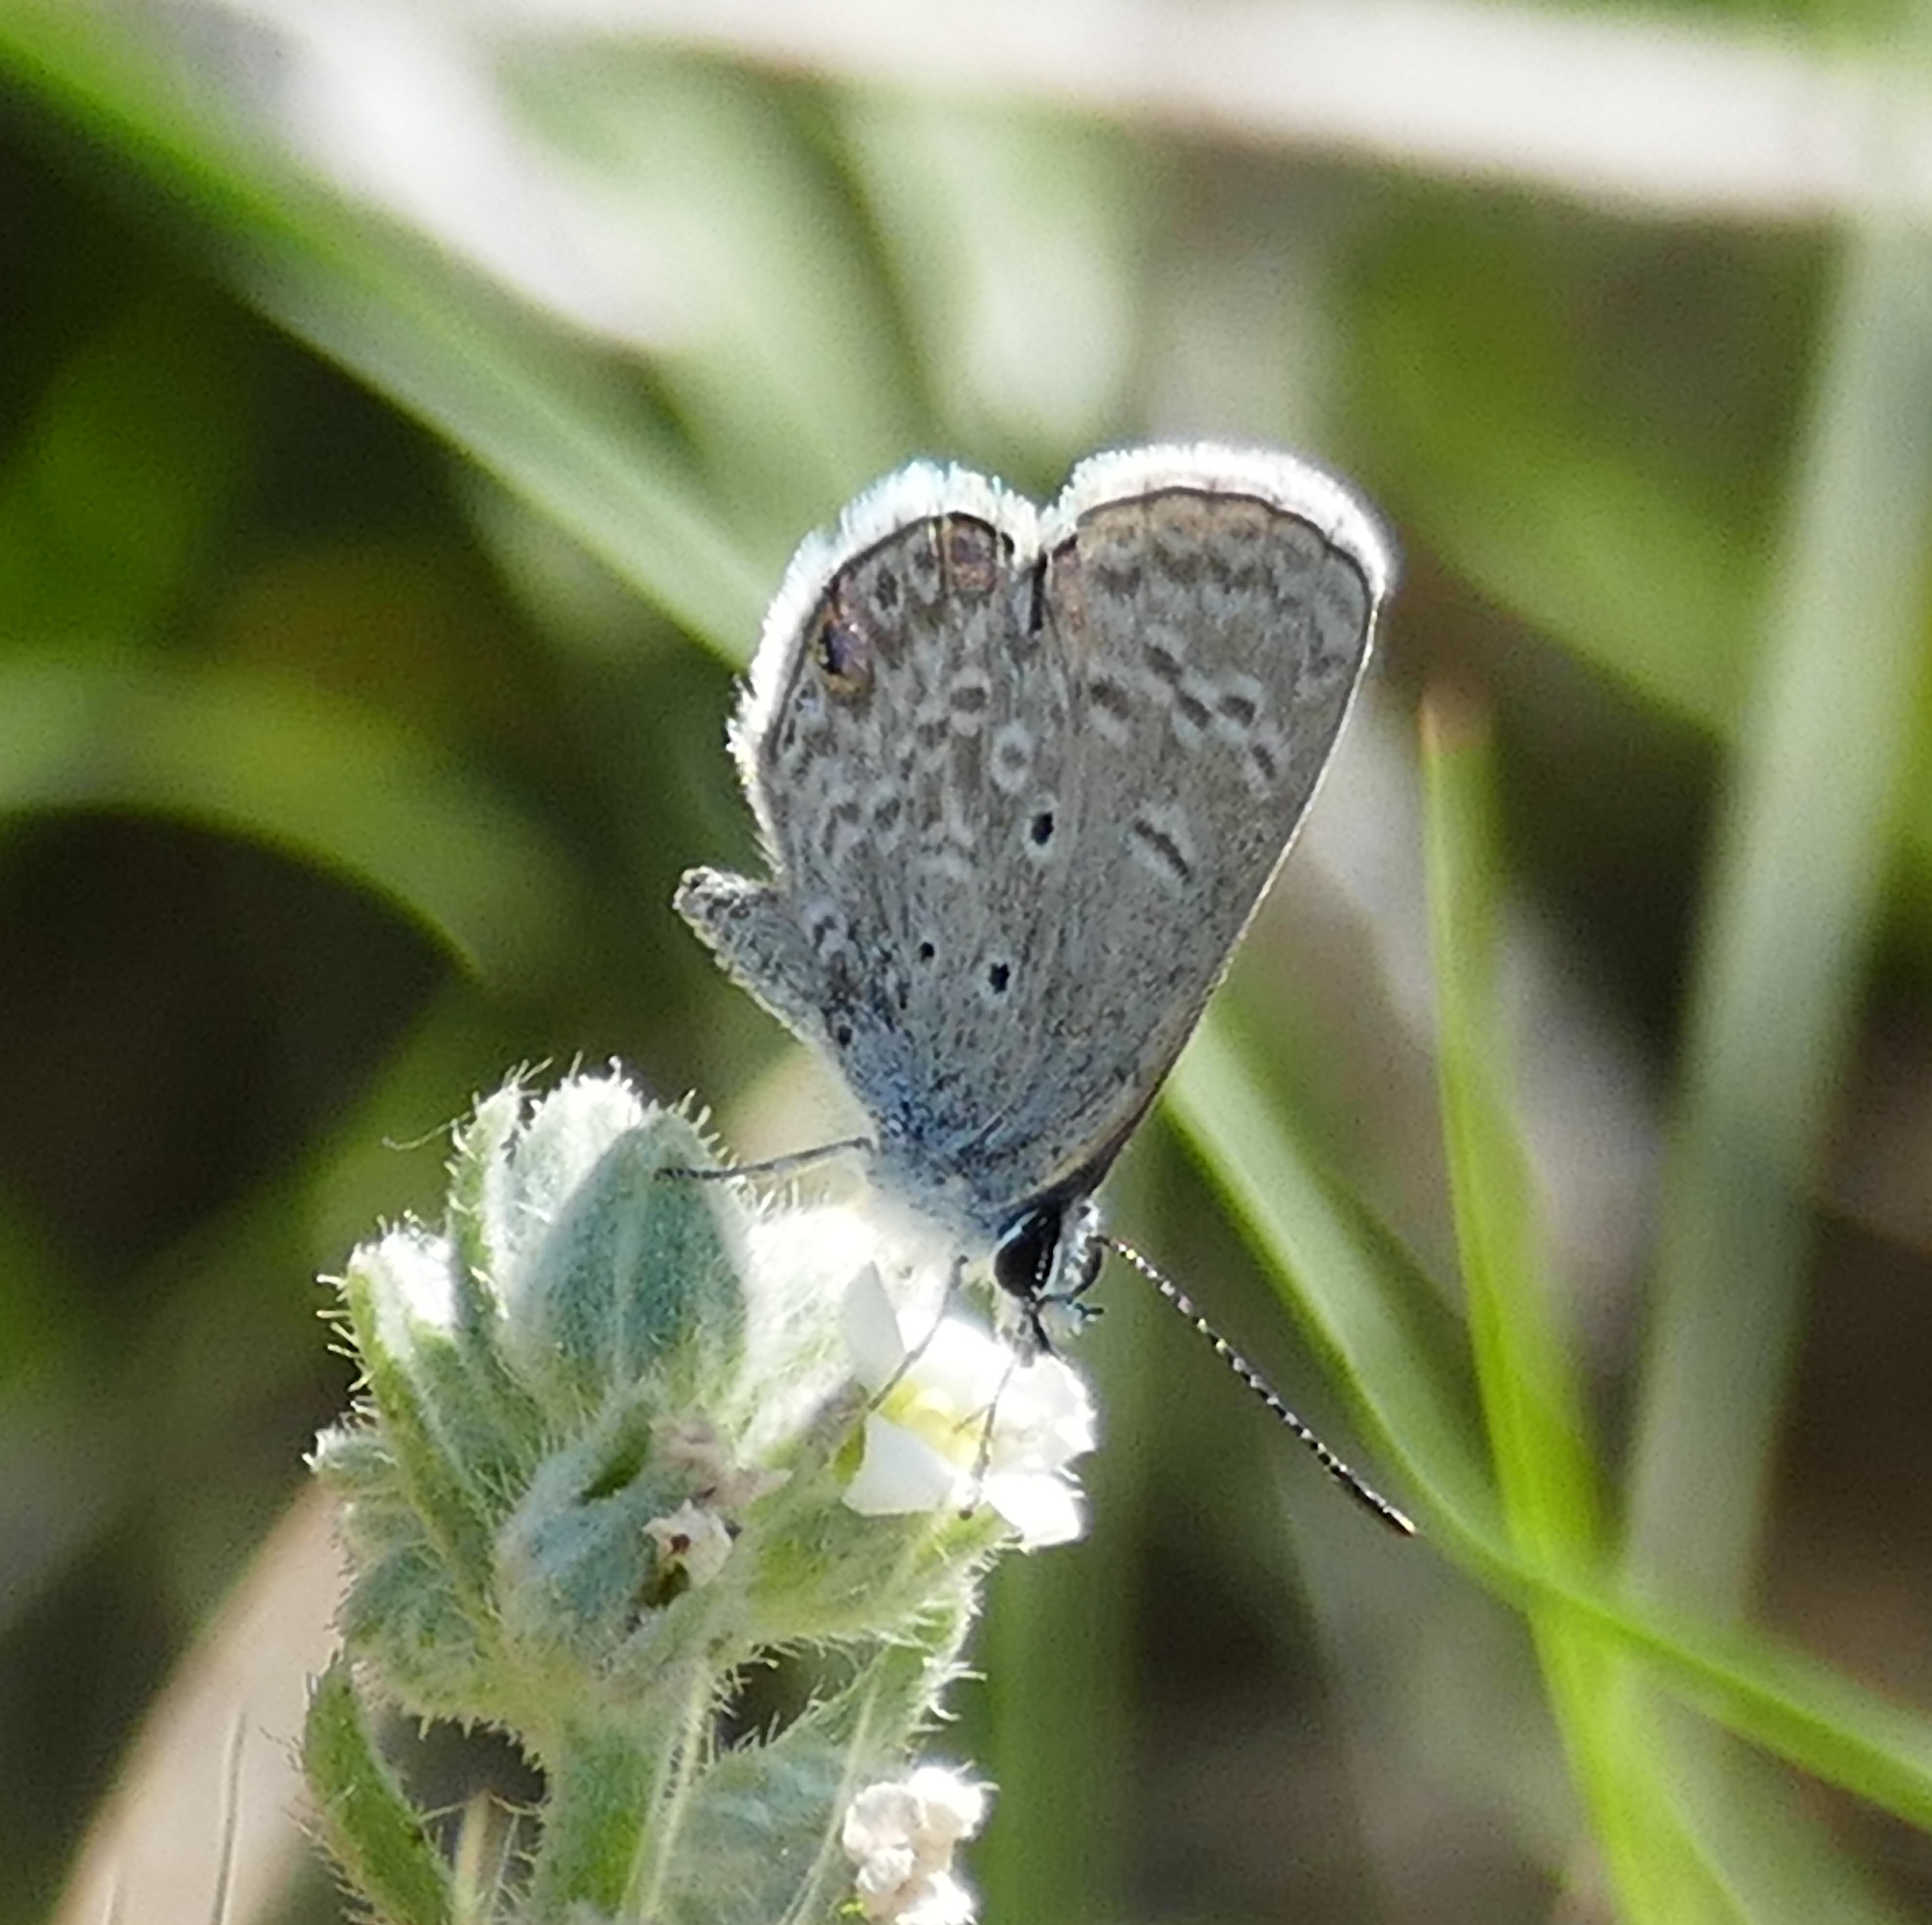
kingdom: Animalia
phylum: Arthropoda
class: Insecta
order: Lepidoptera
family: Lycaenidae
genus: Hemiargus
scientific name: Hemiargus ceraunus
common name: Ceraunus blue
